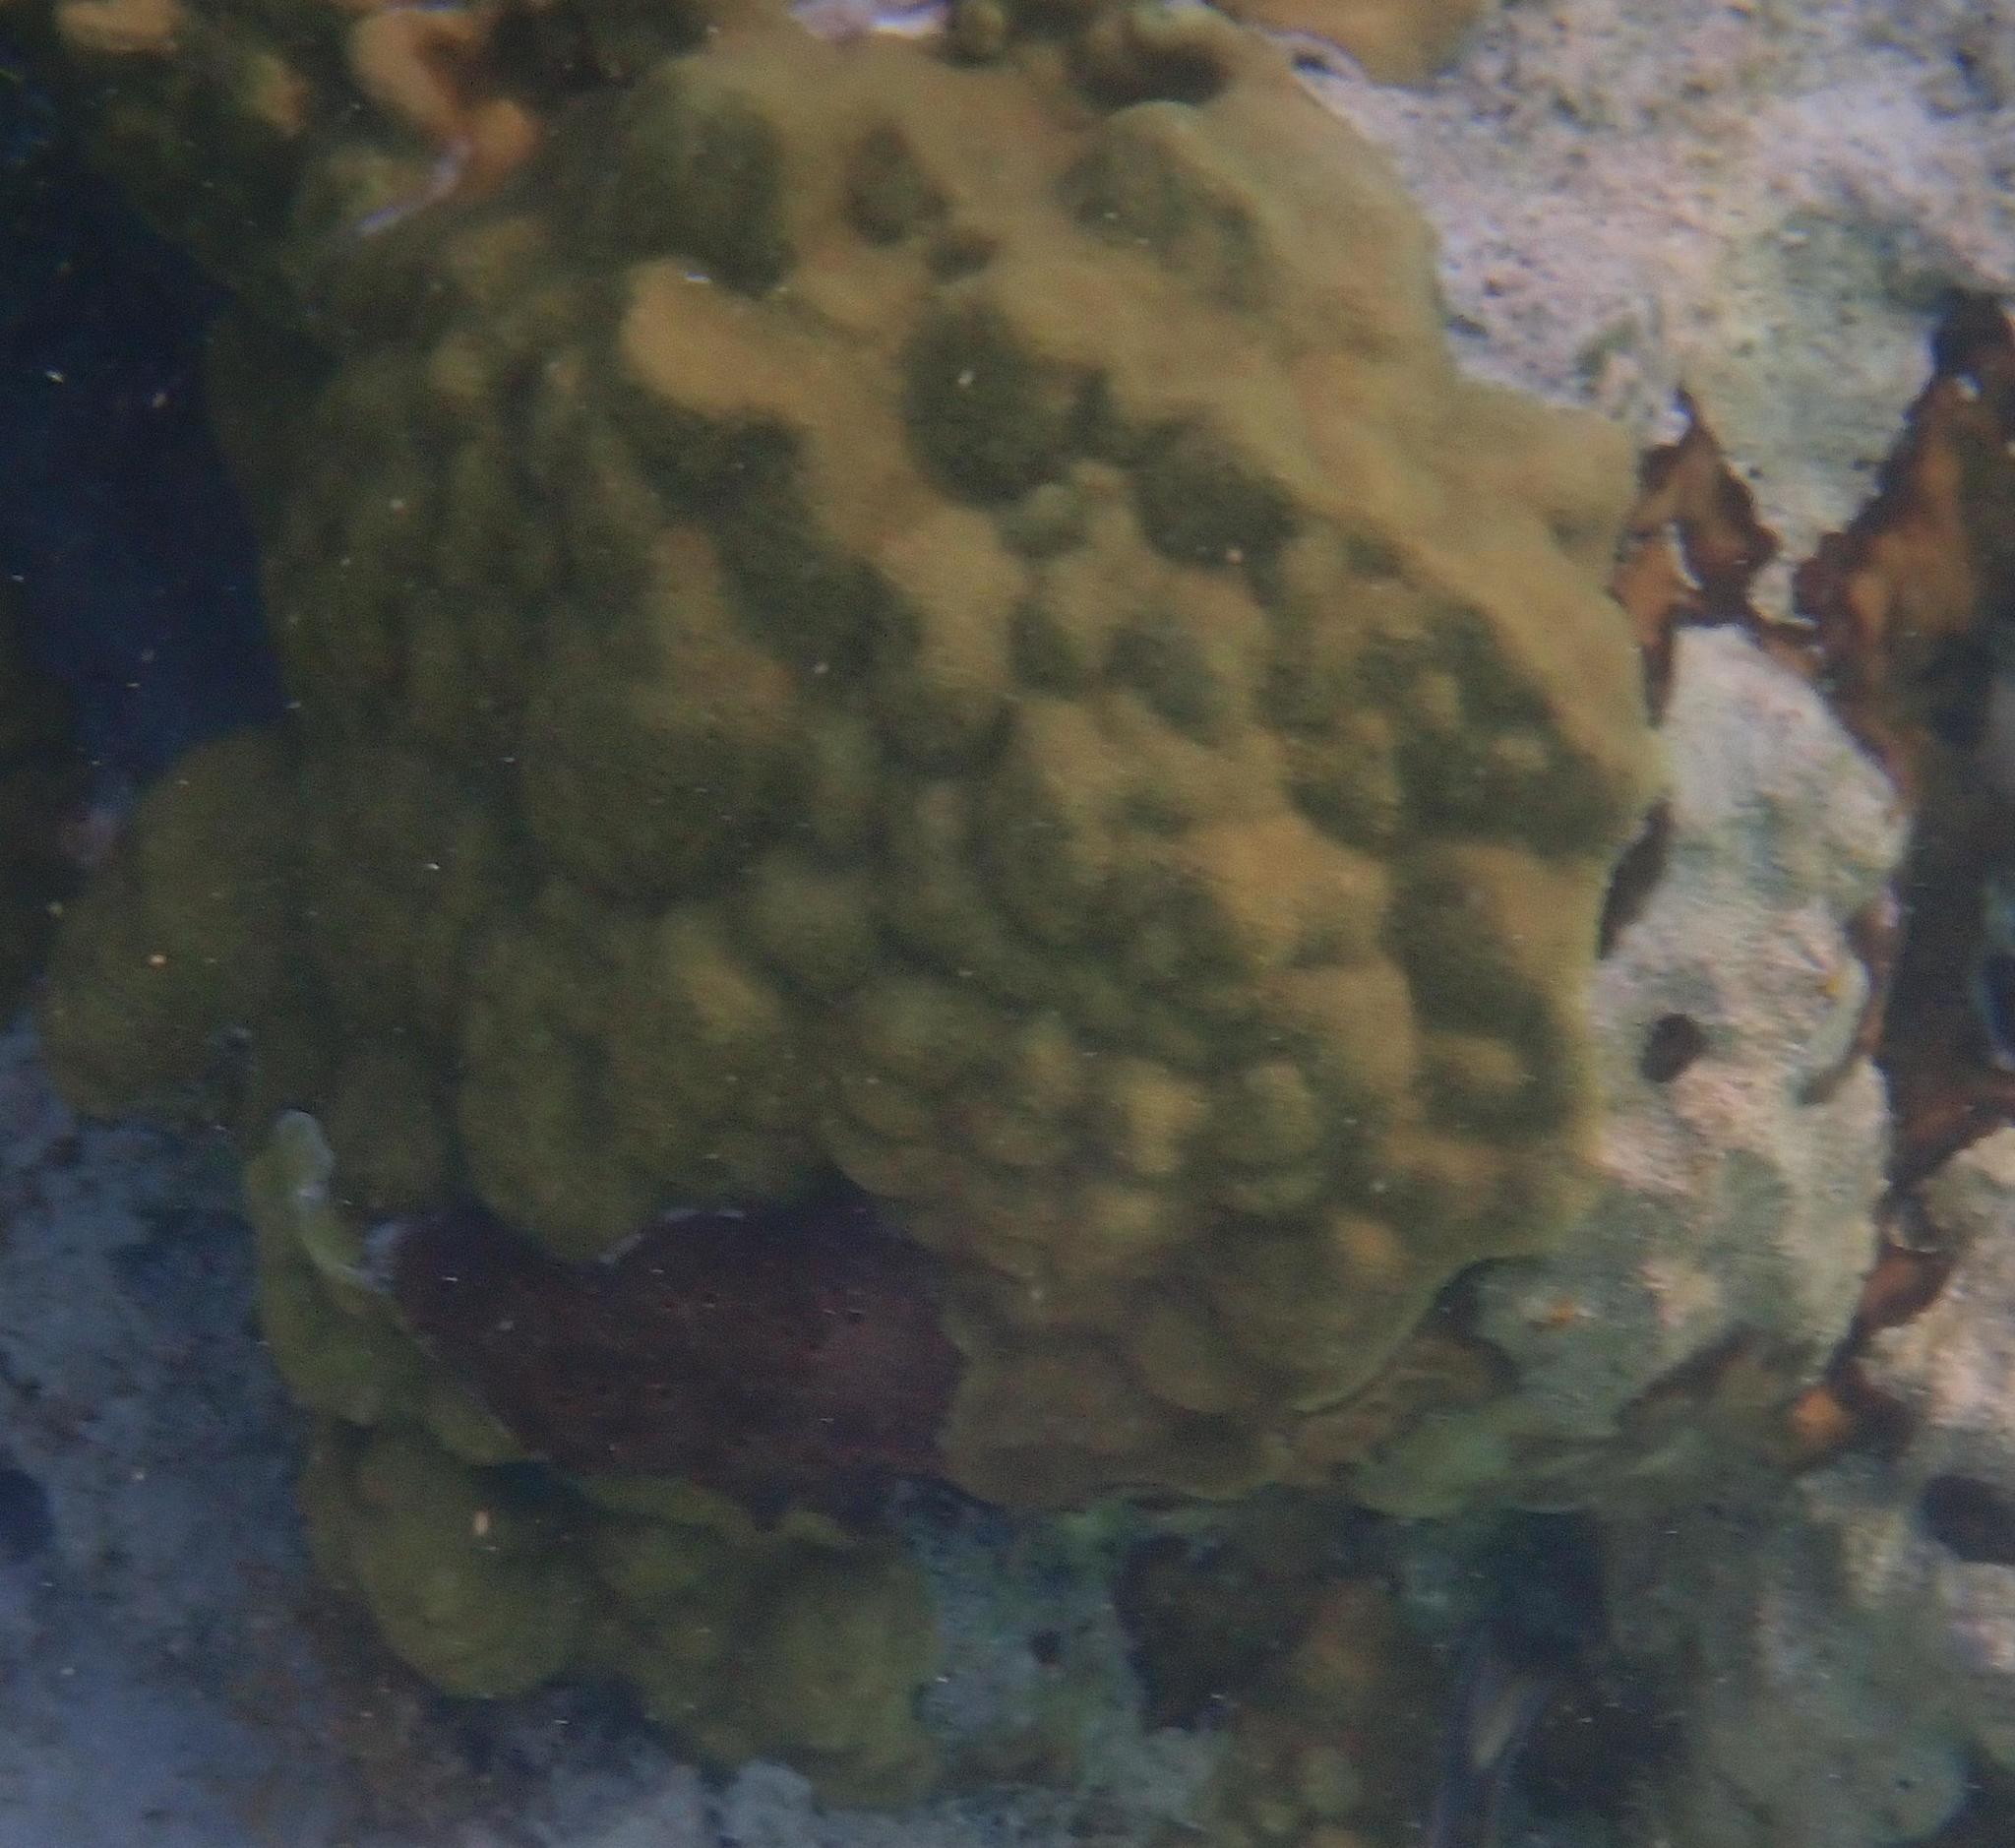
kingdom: Animalia
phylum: Cnidaria
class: Anthozoa
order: Scleractinia
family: Poritidae
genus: Porites
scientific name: Porites astreoides
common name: Mustard hill coral
